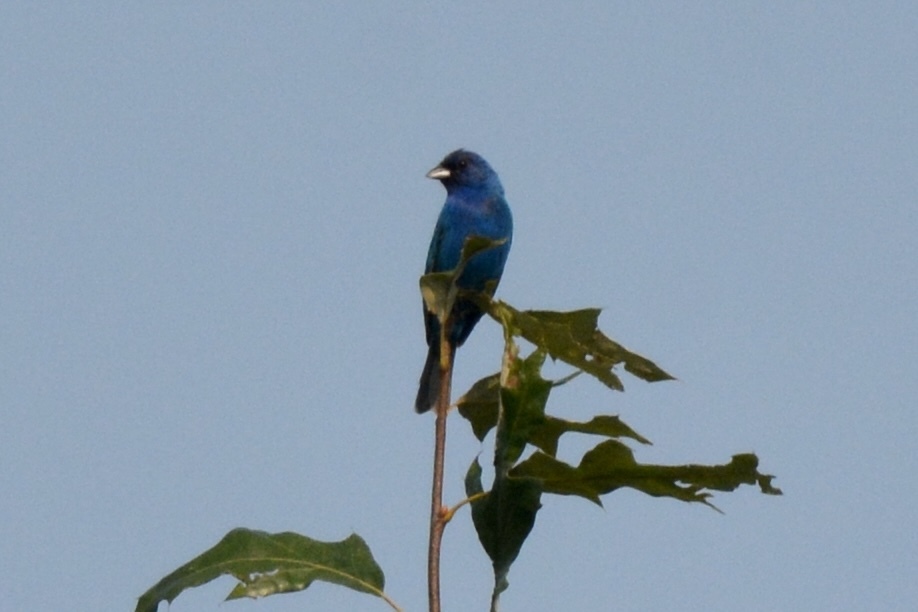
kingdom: Animalia
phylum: Chordata
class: Aves
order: Passeriformes
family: Cardinalidae
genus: Passerina
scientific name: Passerina cyanea
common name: Indigo bunting
